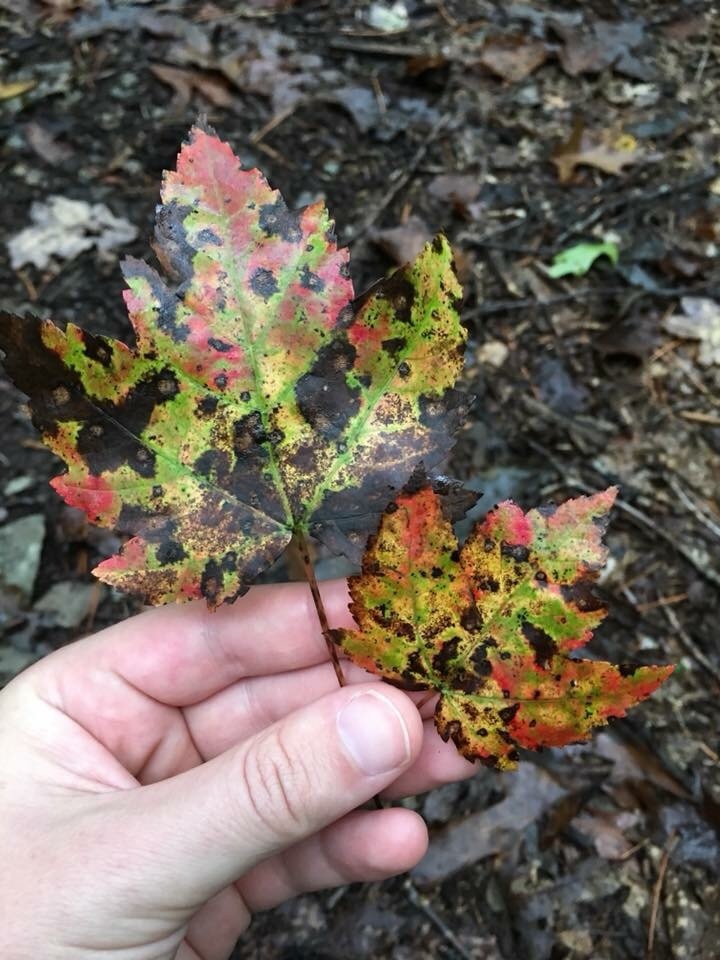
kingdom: Plantae
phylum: Tracheophyta
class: Magnoliopsida
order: Sapindales
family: Sapindaceae
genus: Acer
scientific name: Acer rubrum
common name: Red maple
